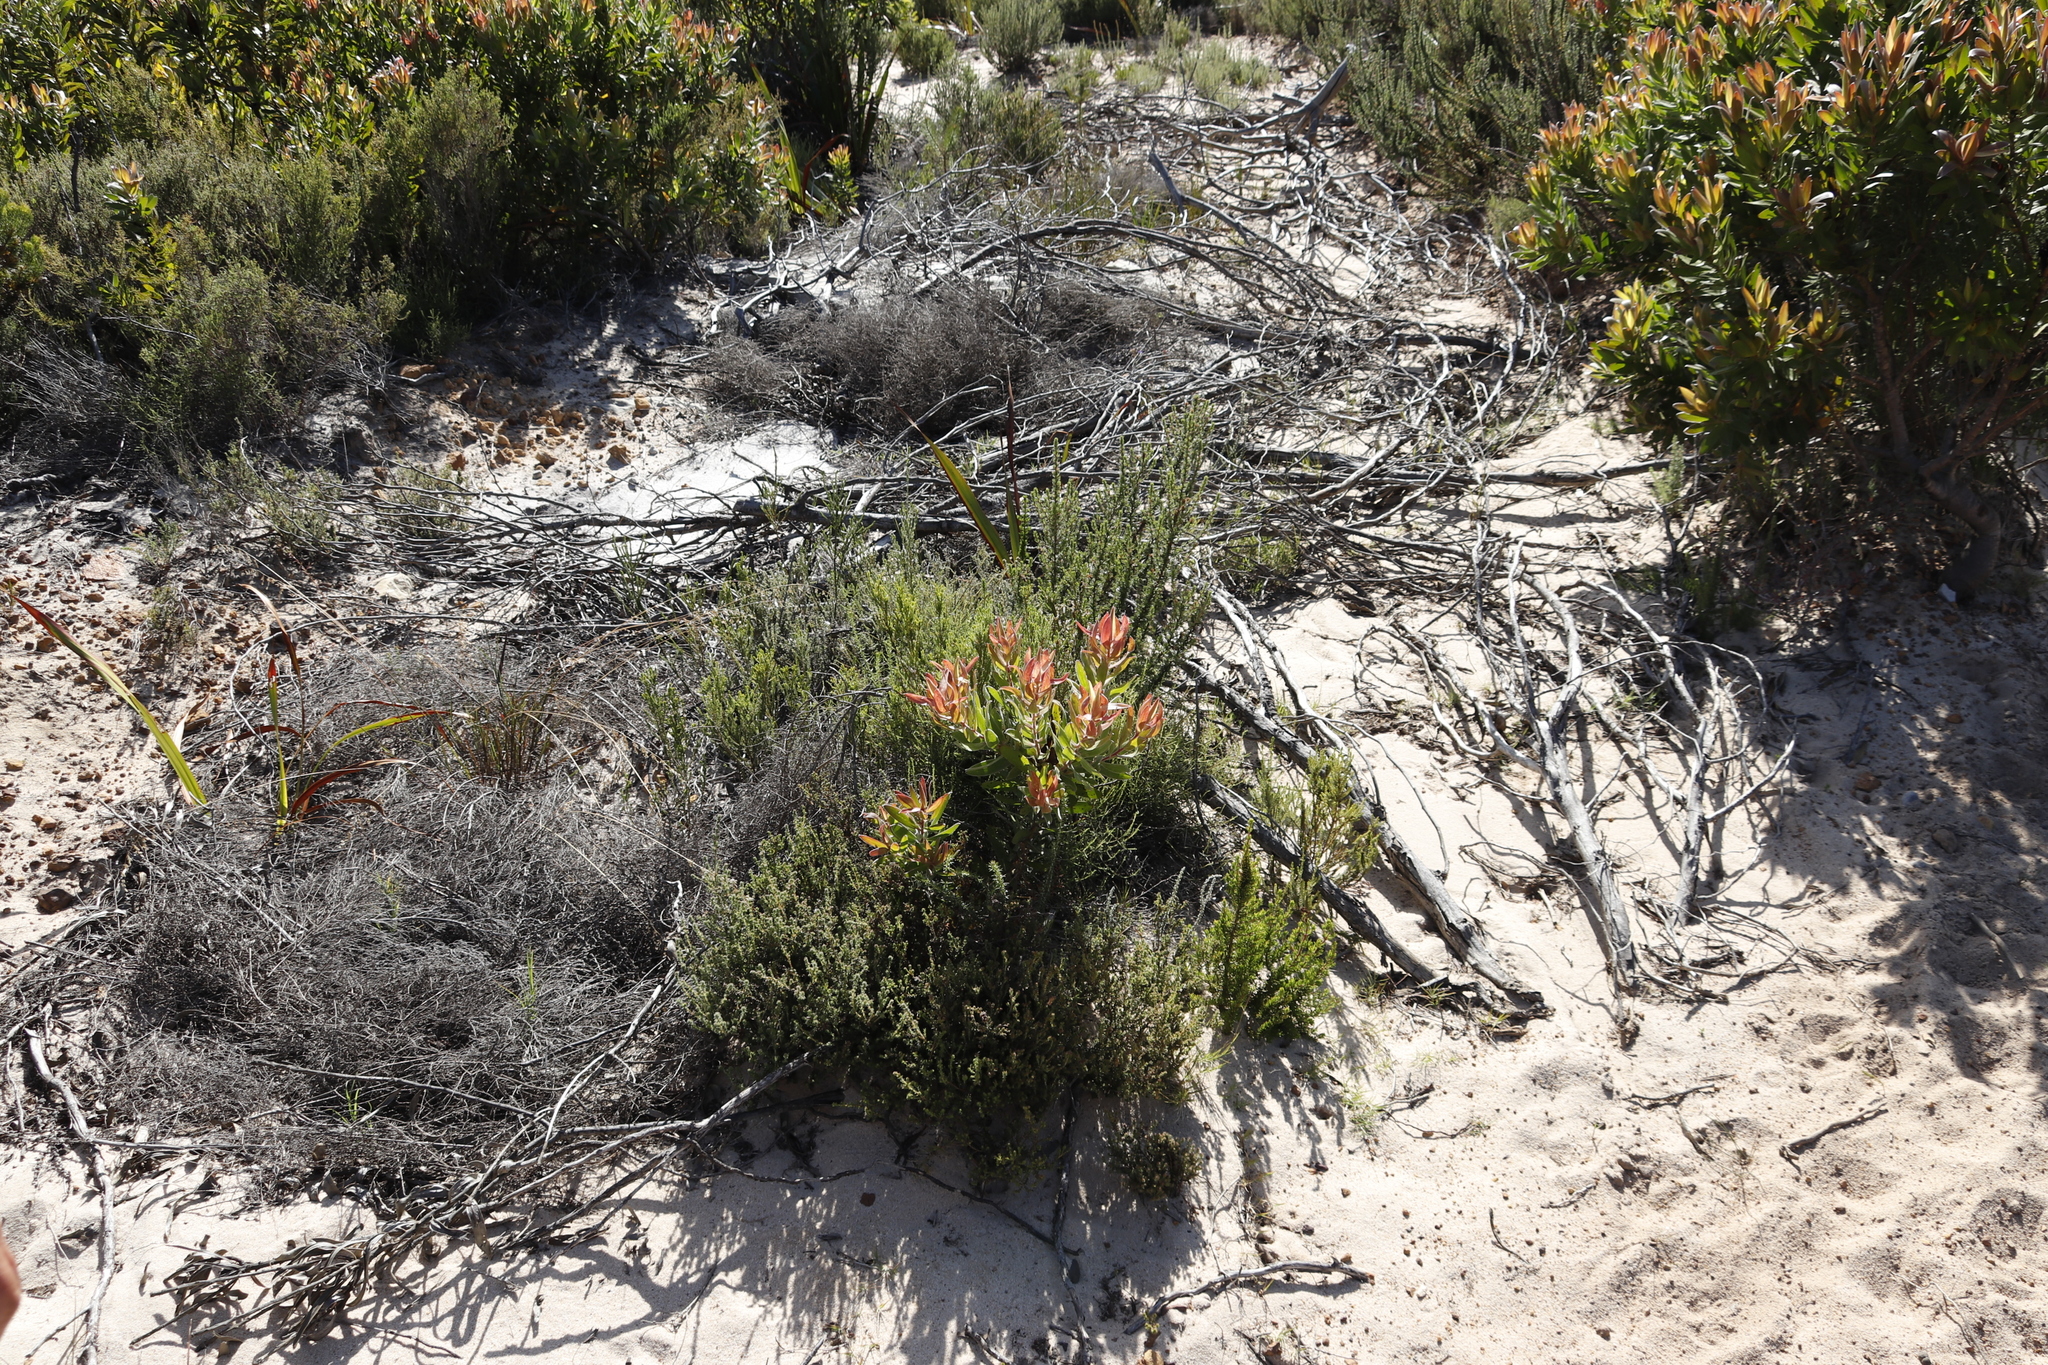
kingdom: Plantae
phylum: Tracheophyta
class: Magnoliopsida
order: Proteales
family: Proteaceae
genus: Leucadendron
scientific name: Leucadendron laureolum
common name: Golden sunshinebush
